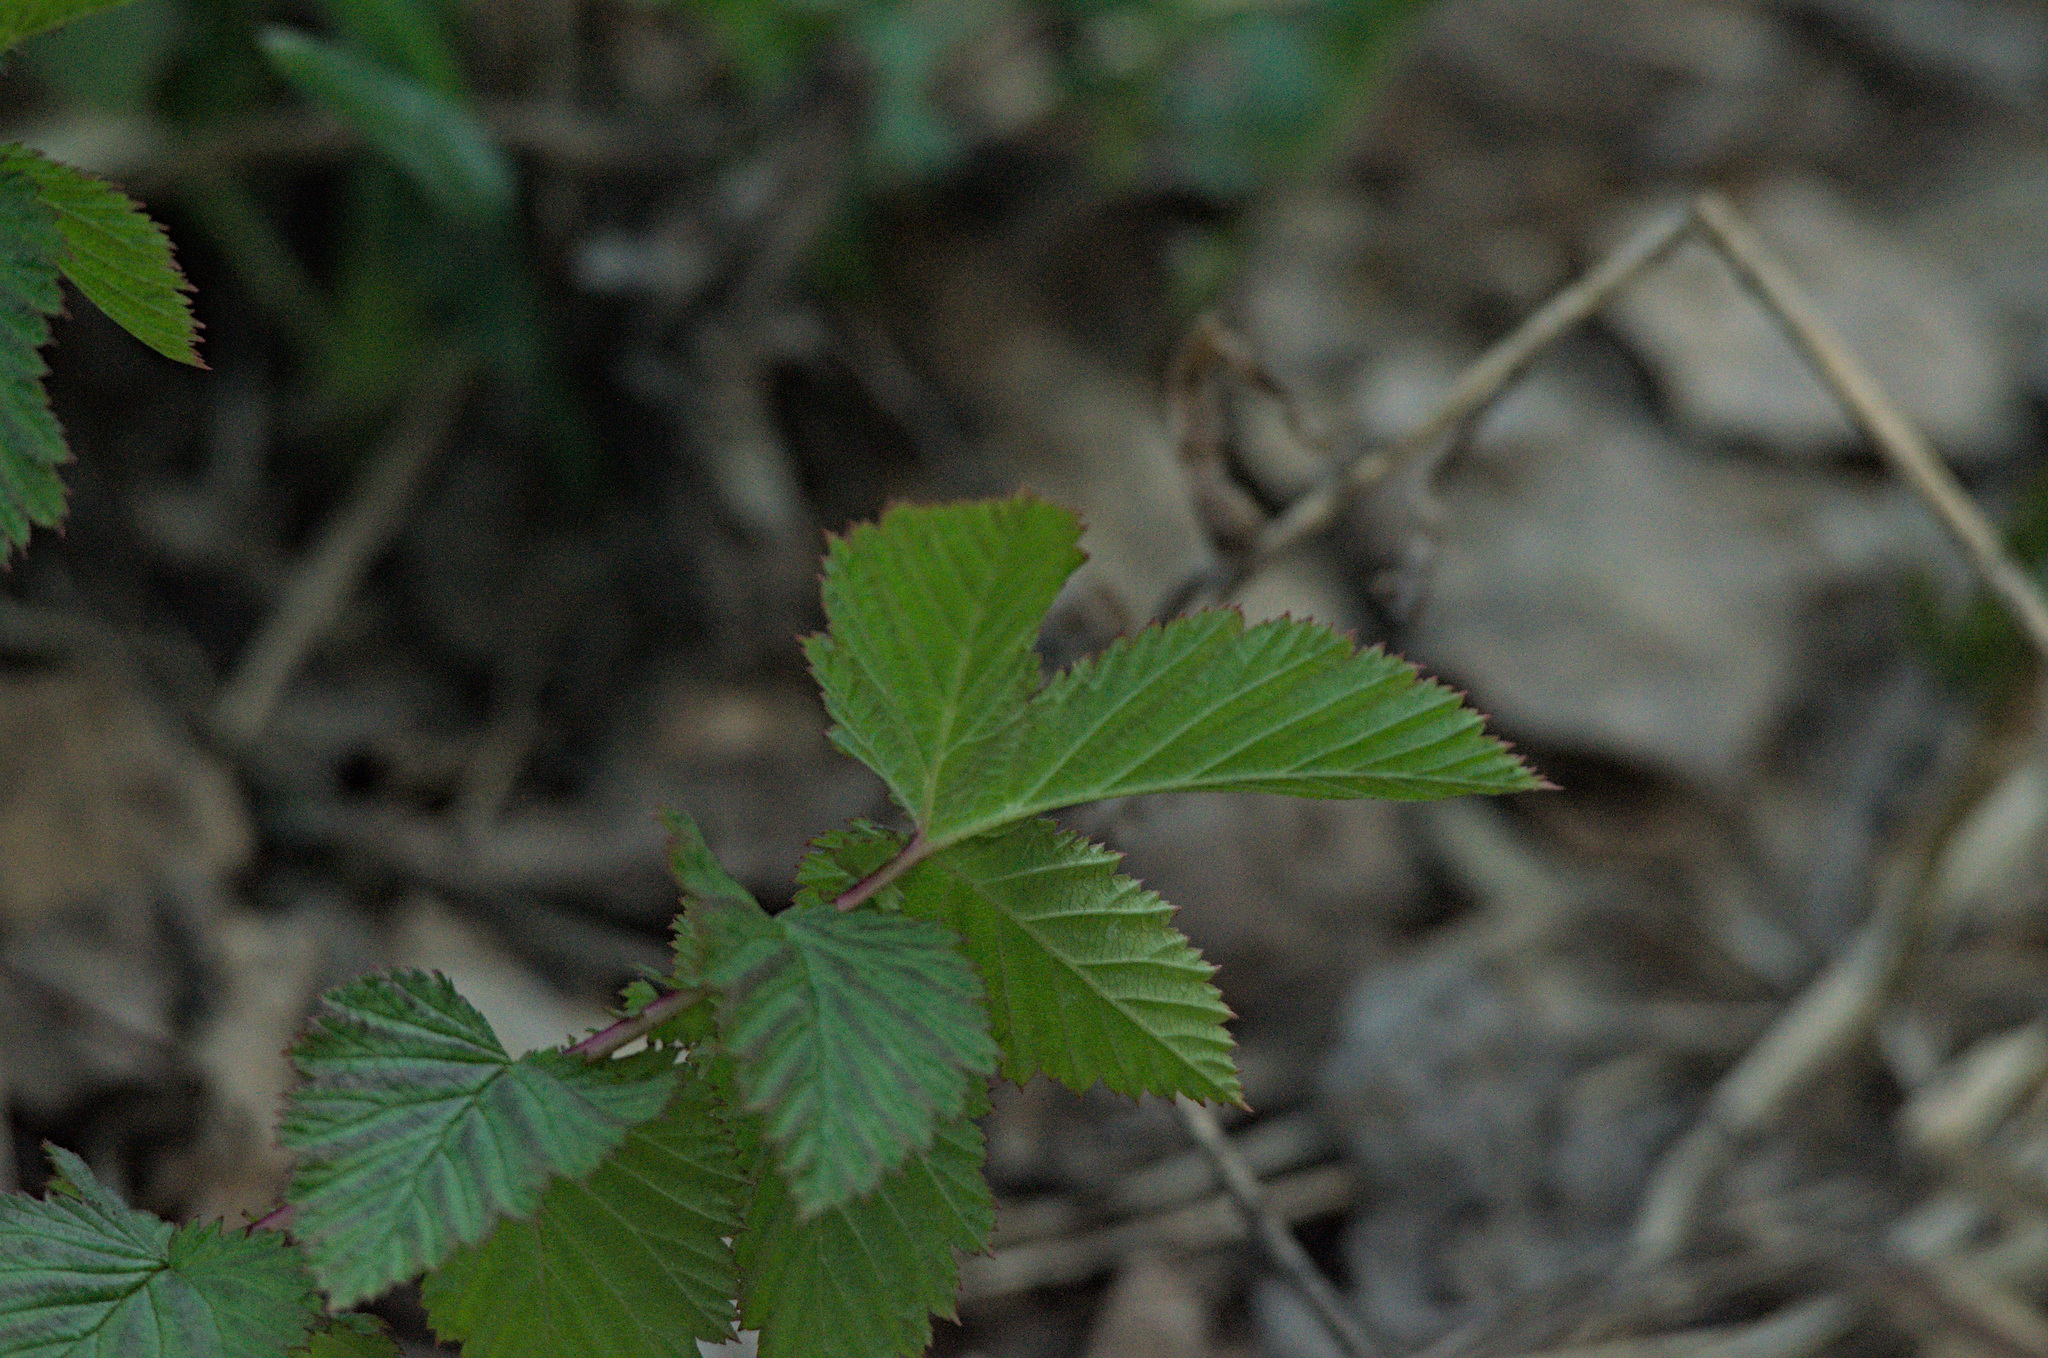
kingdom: Plantae
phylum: Tracheophyta
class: Magnoliopsida
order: Rosales
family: Rosaceae
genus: Filipendula
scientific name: Filipendula ulmaria
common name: Meadowsweet
